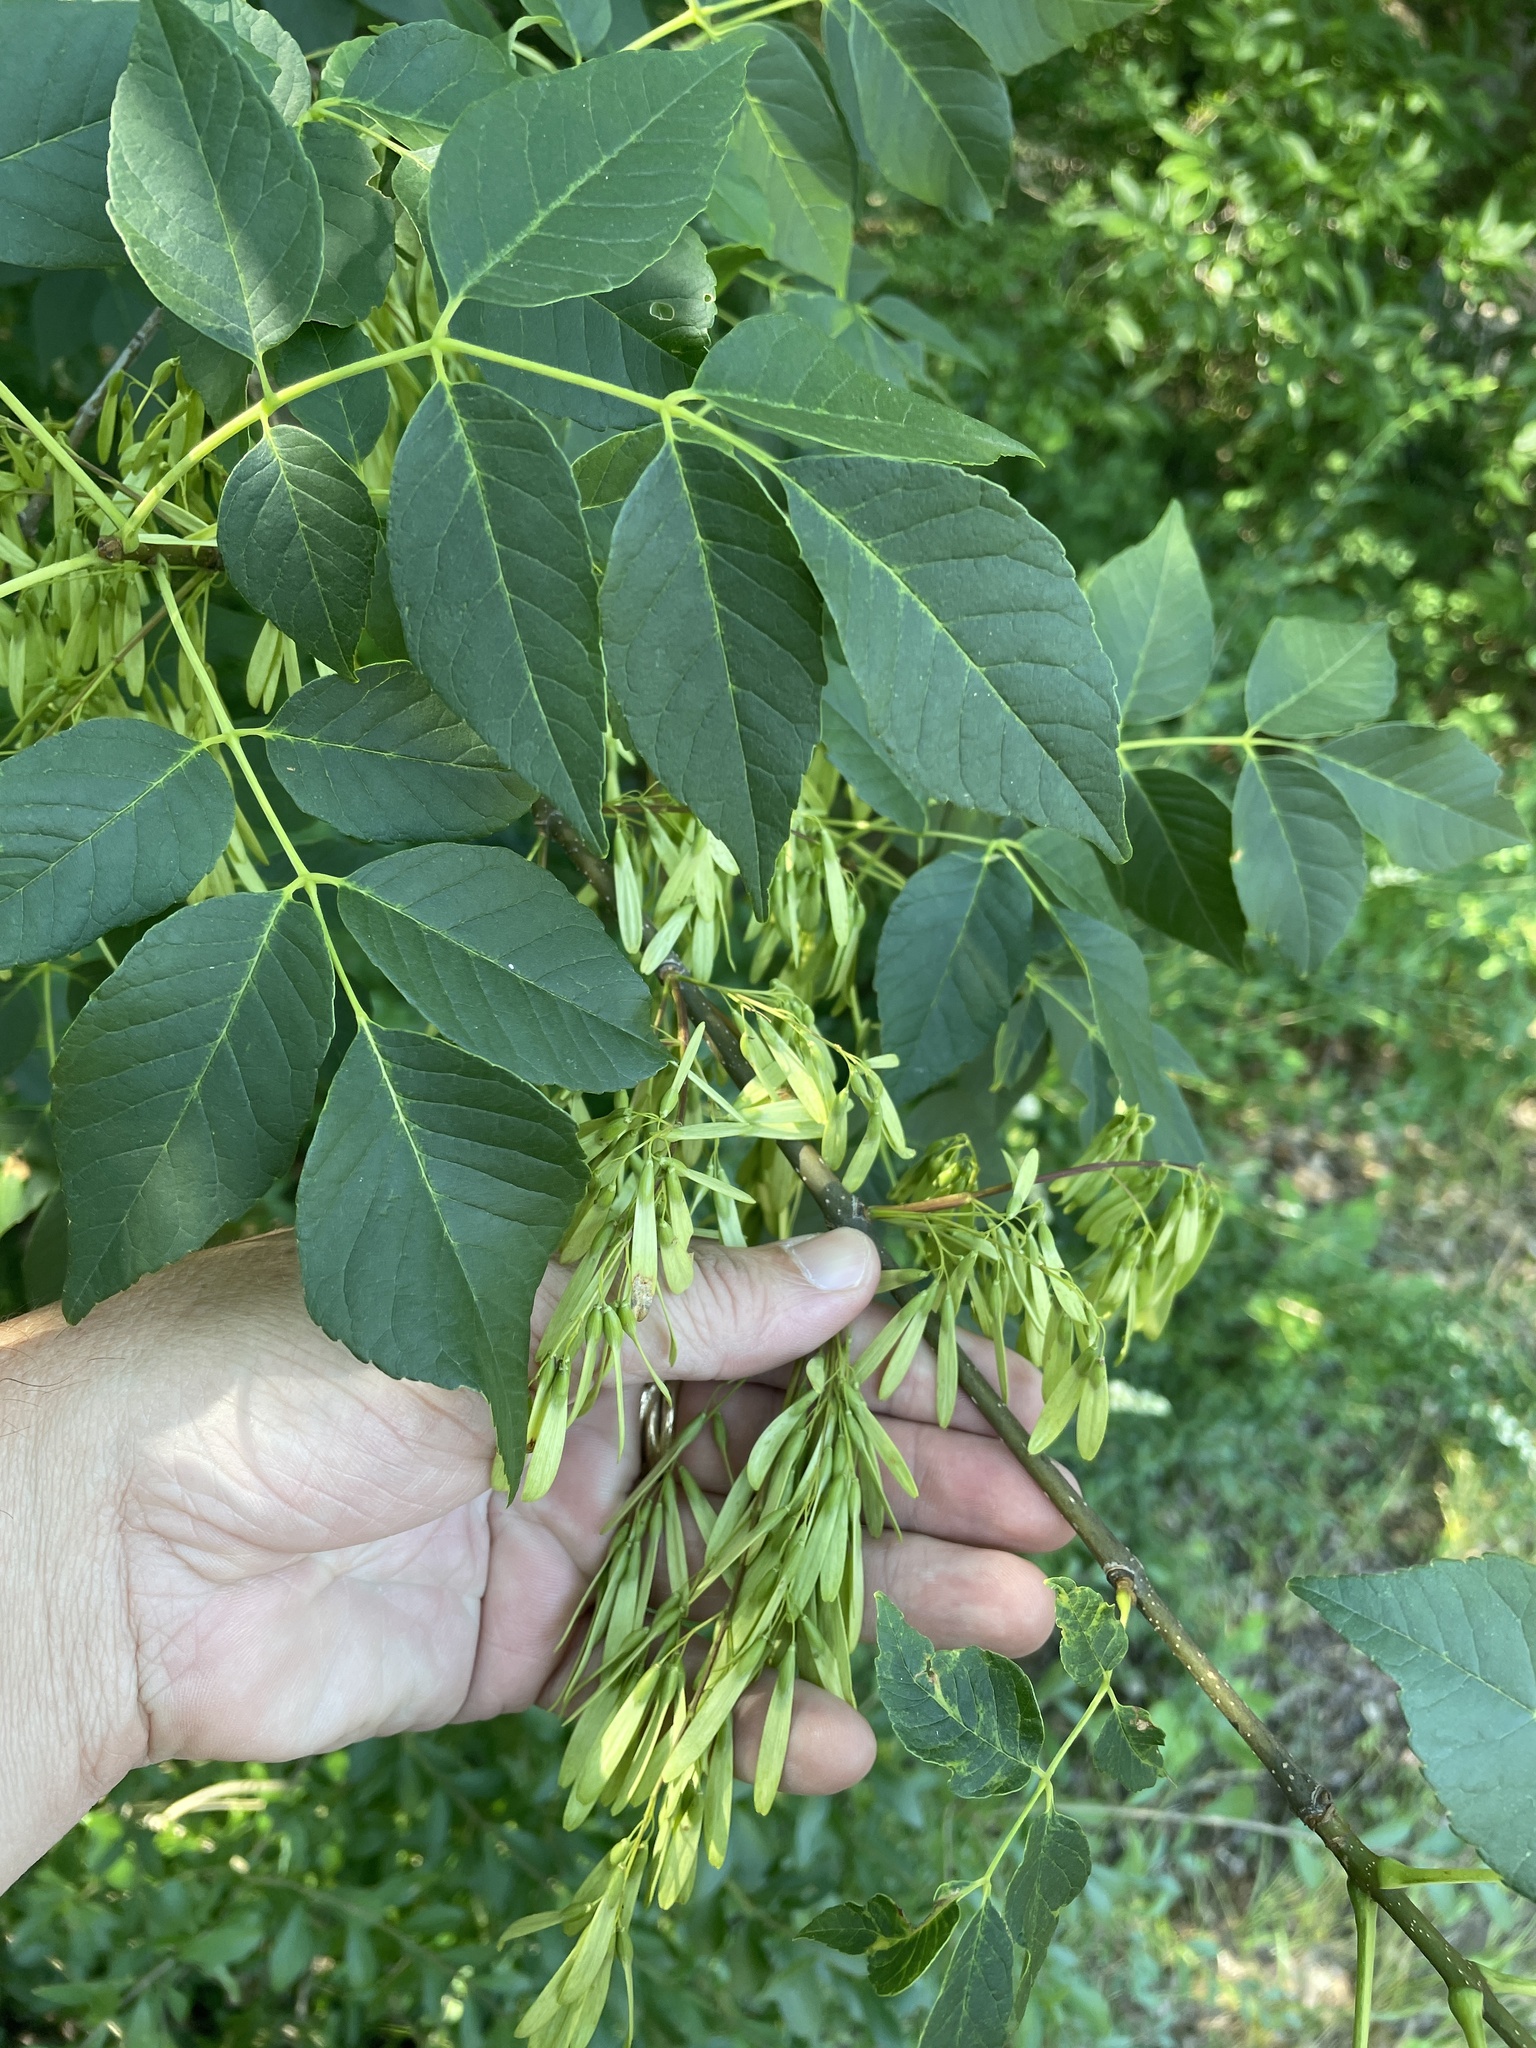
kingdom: Plantae
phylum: Tracheophyta
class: Magnoliopsida
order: Lamiales
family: Oleaceae
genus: Fraxinus
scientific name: Fraxinus albicans
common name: Texas ash
